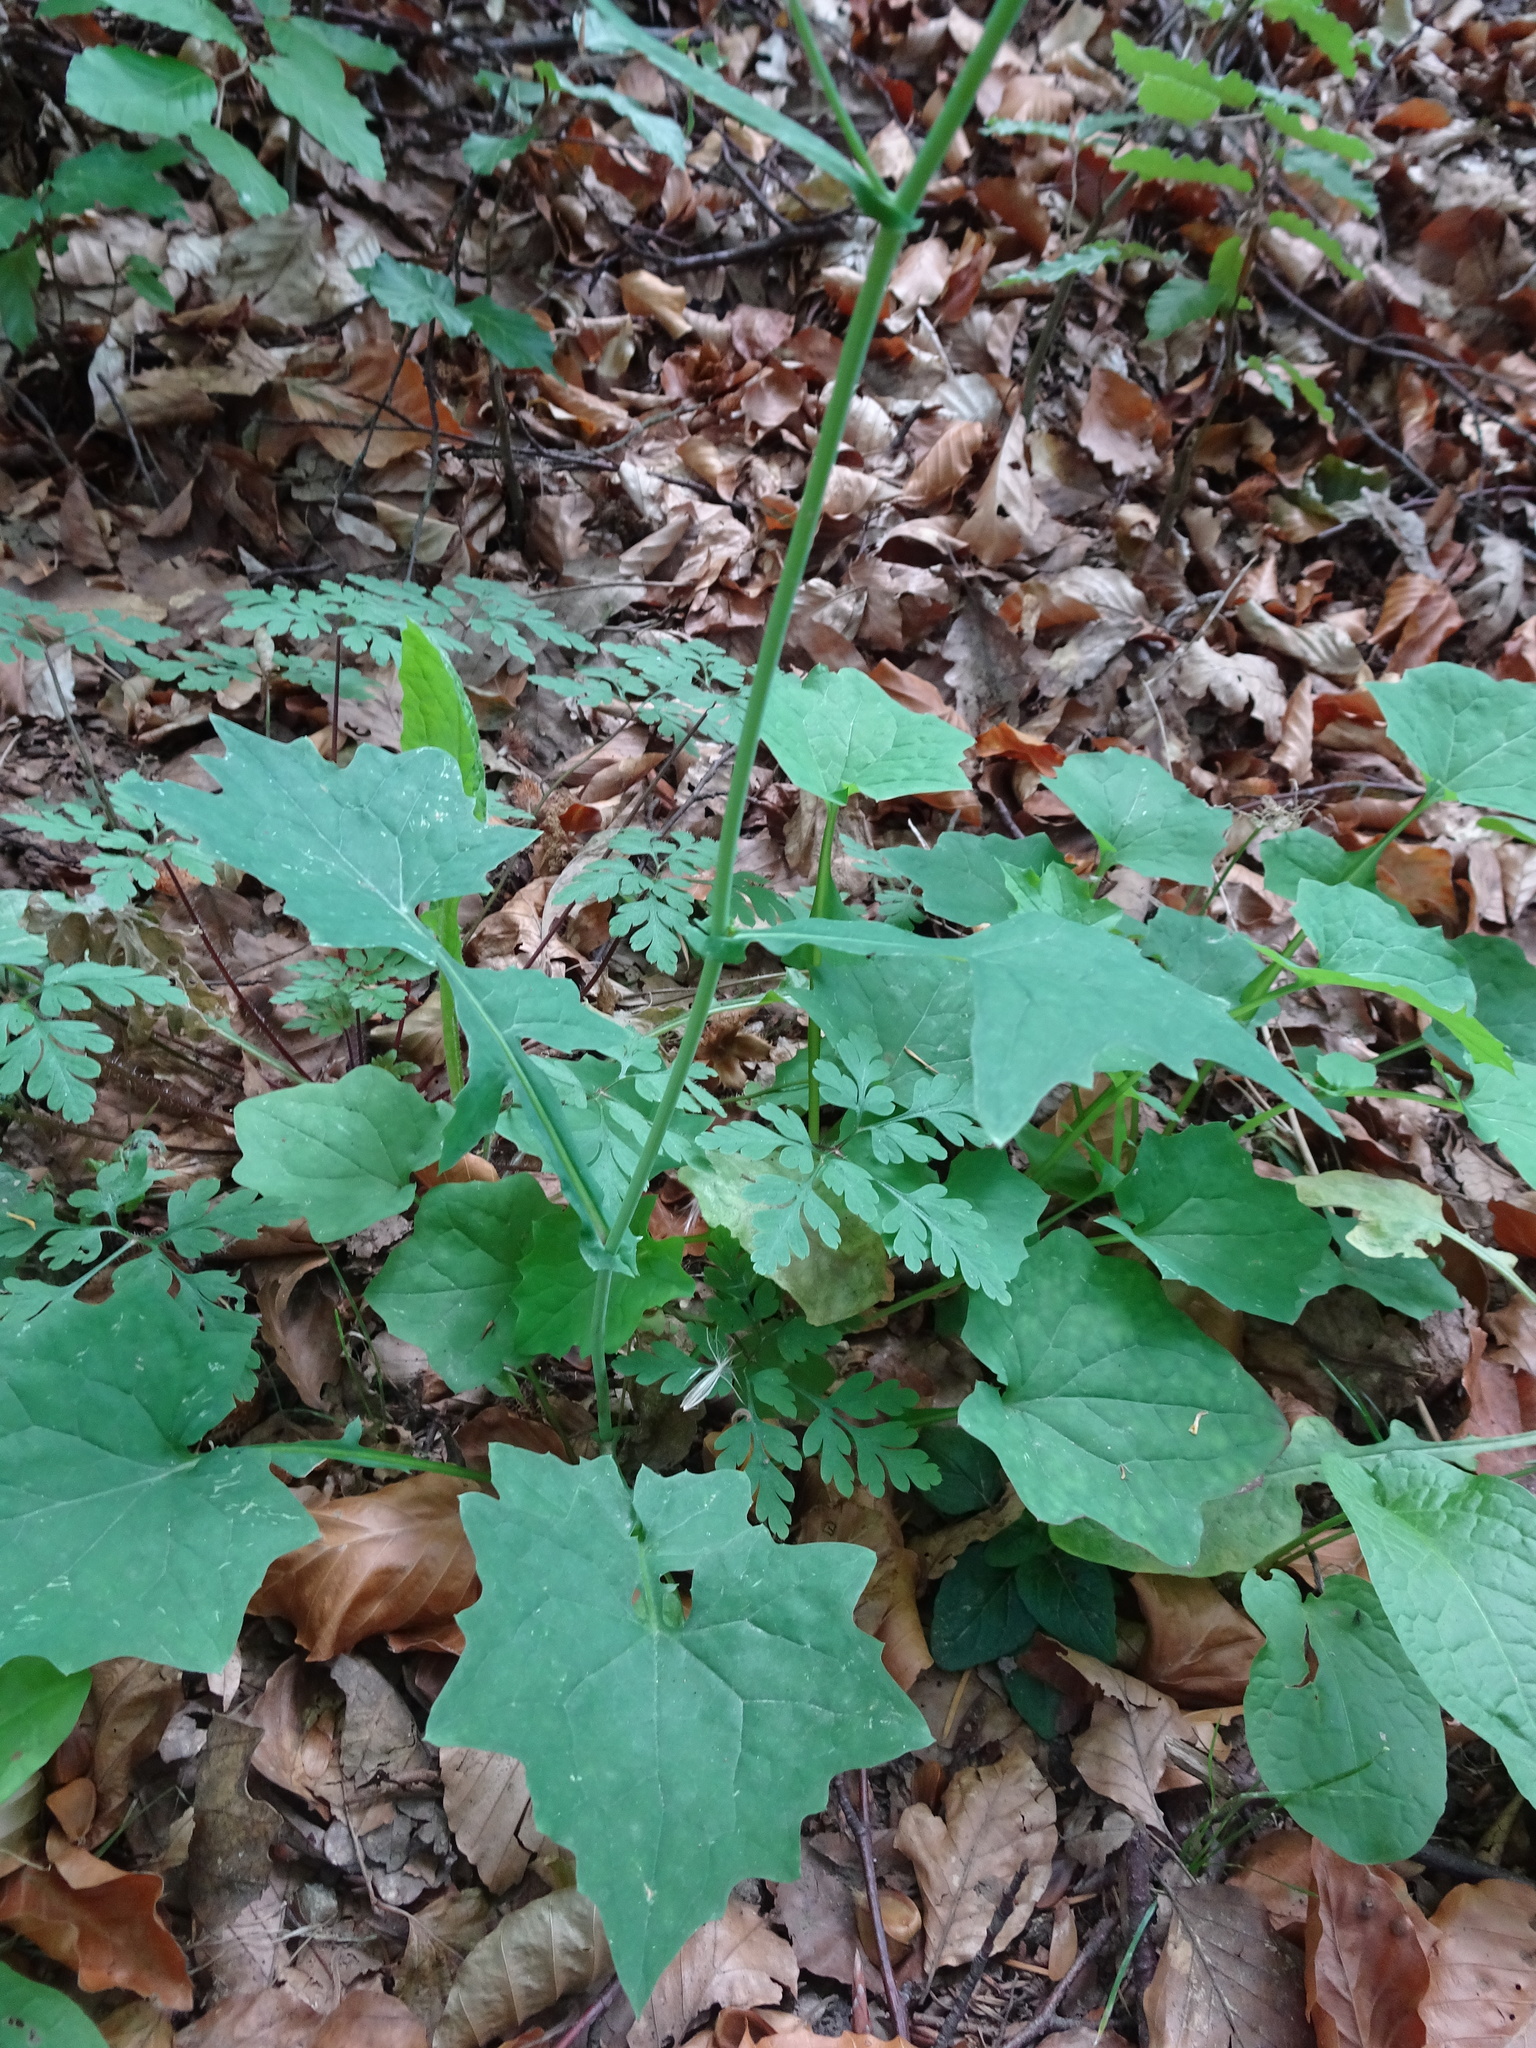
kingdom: Plantae
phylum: Tracheophyta
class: Magnoliopsida
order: Asterales
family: Asteraceae
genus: Mycelis
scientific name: Mycelis muralis
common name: Wall lettuce
